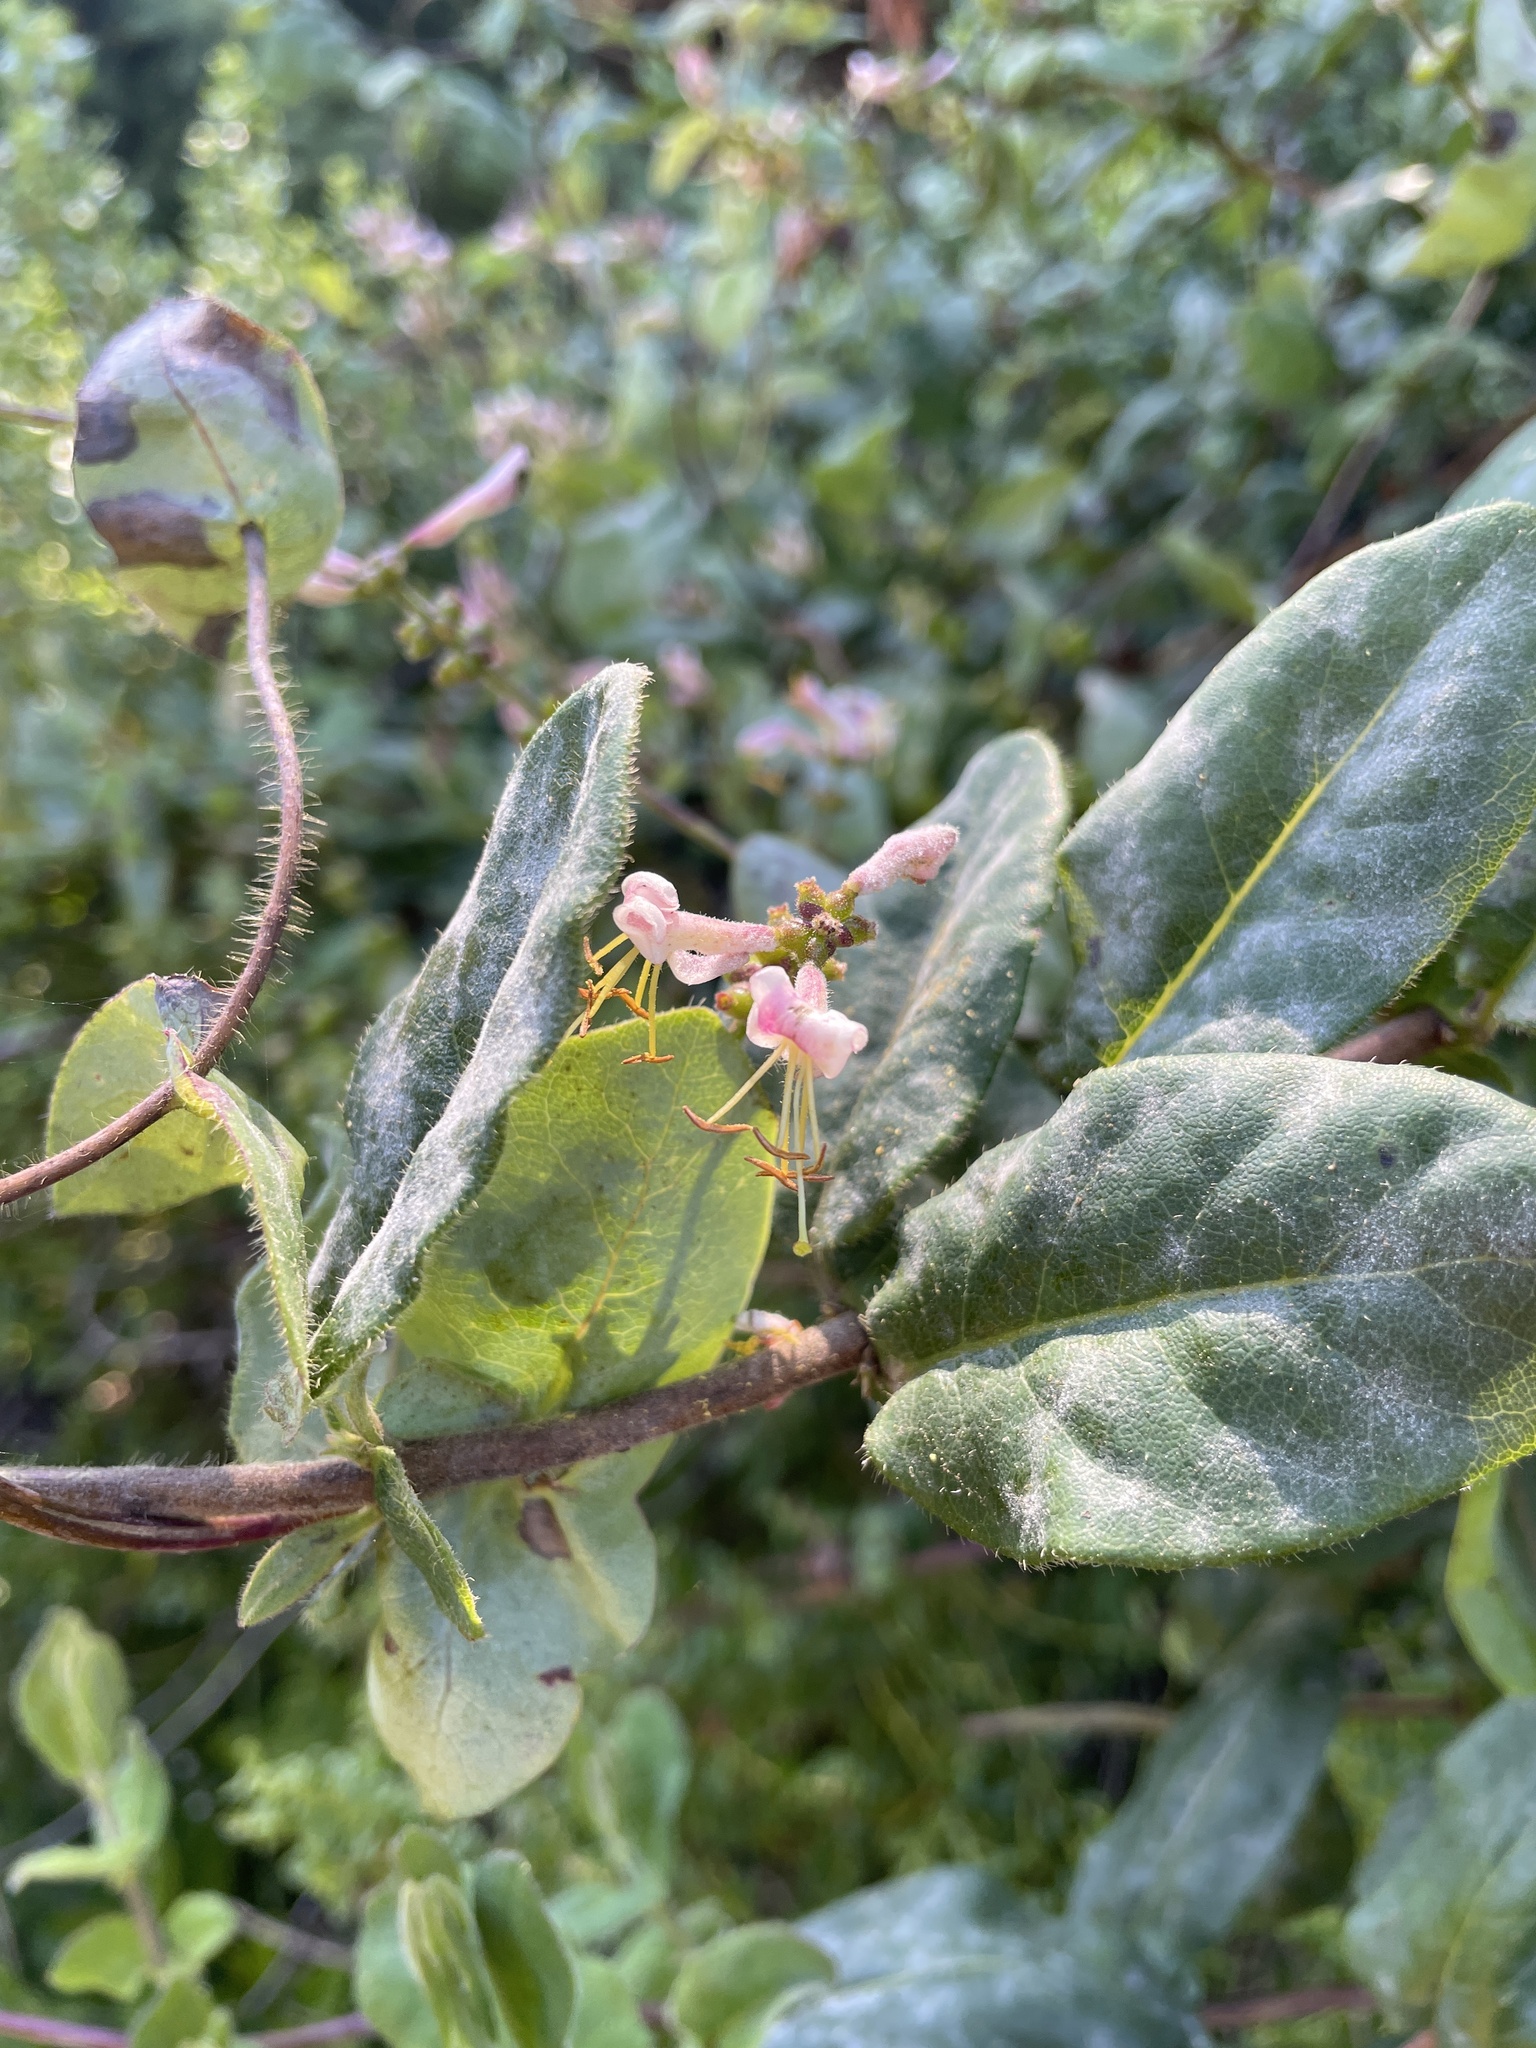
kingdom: Plantae
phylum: Tracheophyta
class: Magnoliopsida
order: Dipsacales
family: Caprifoliaceae
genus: Lonicera
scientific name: Lonicera hispidula
